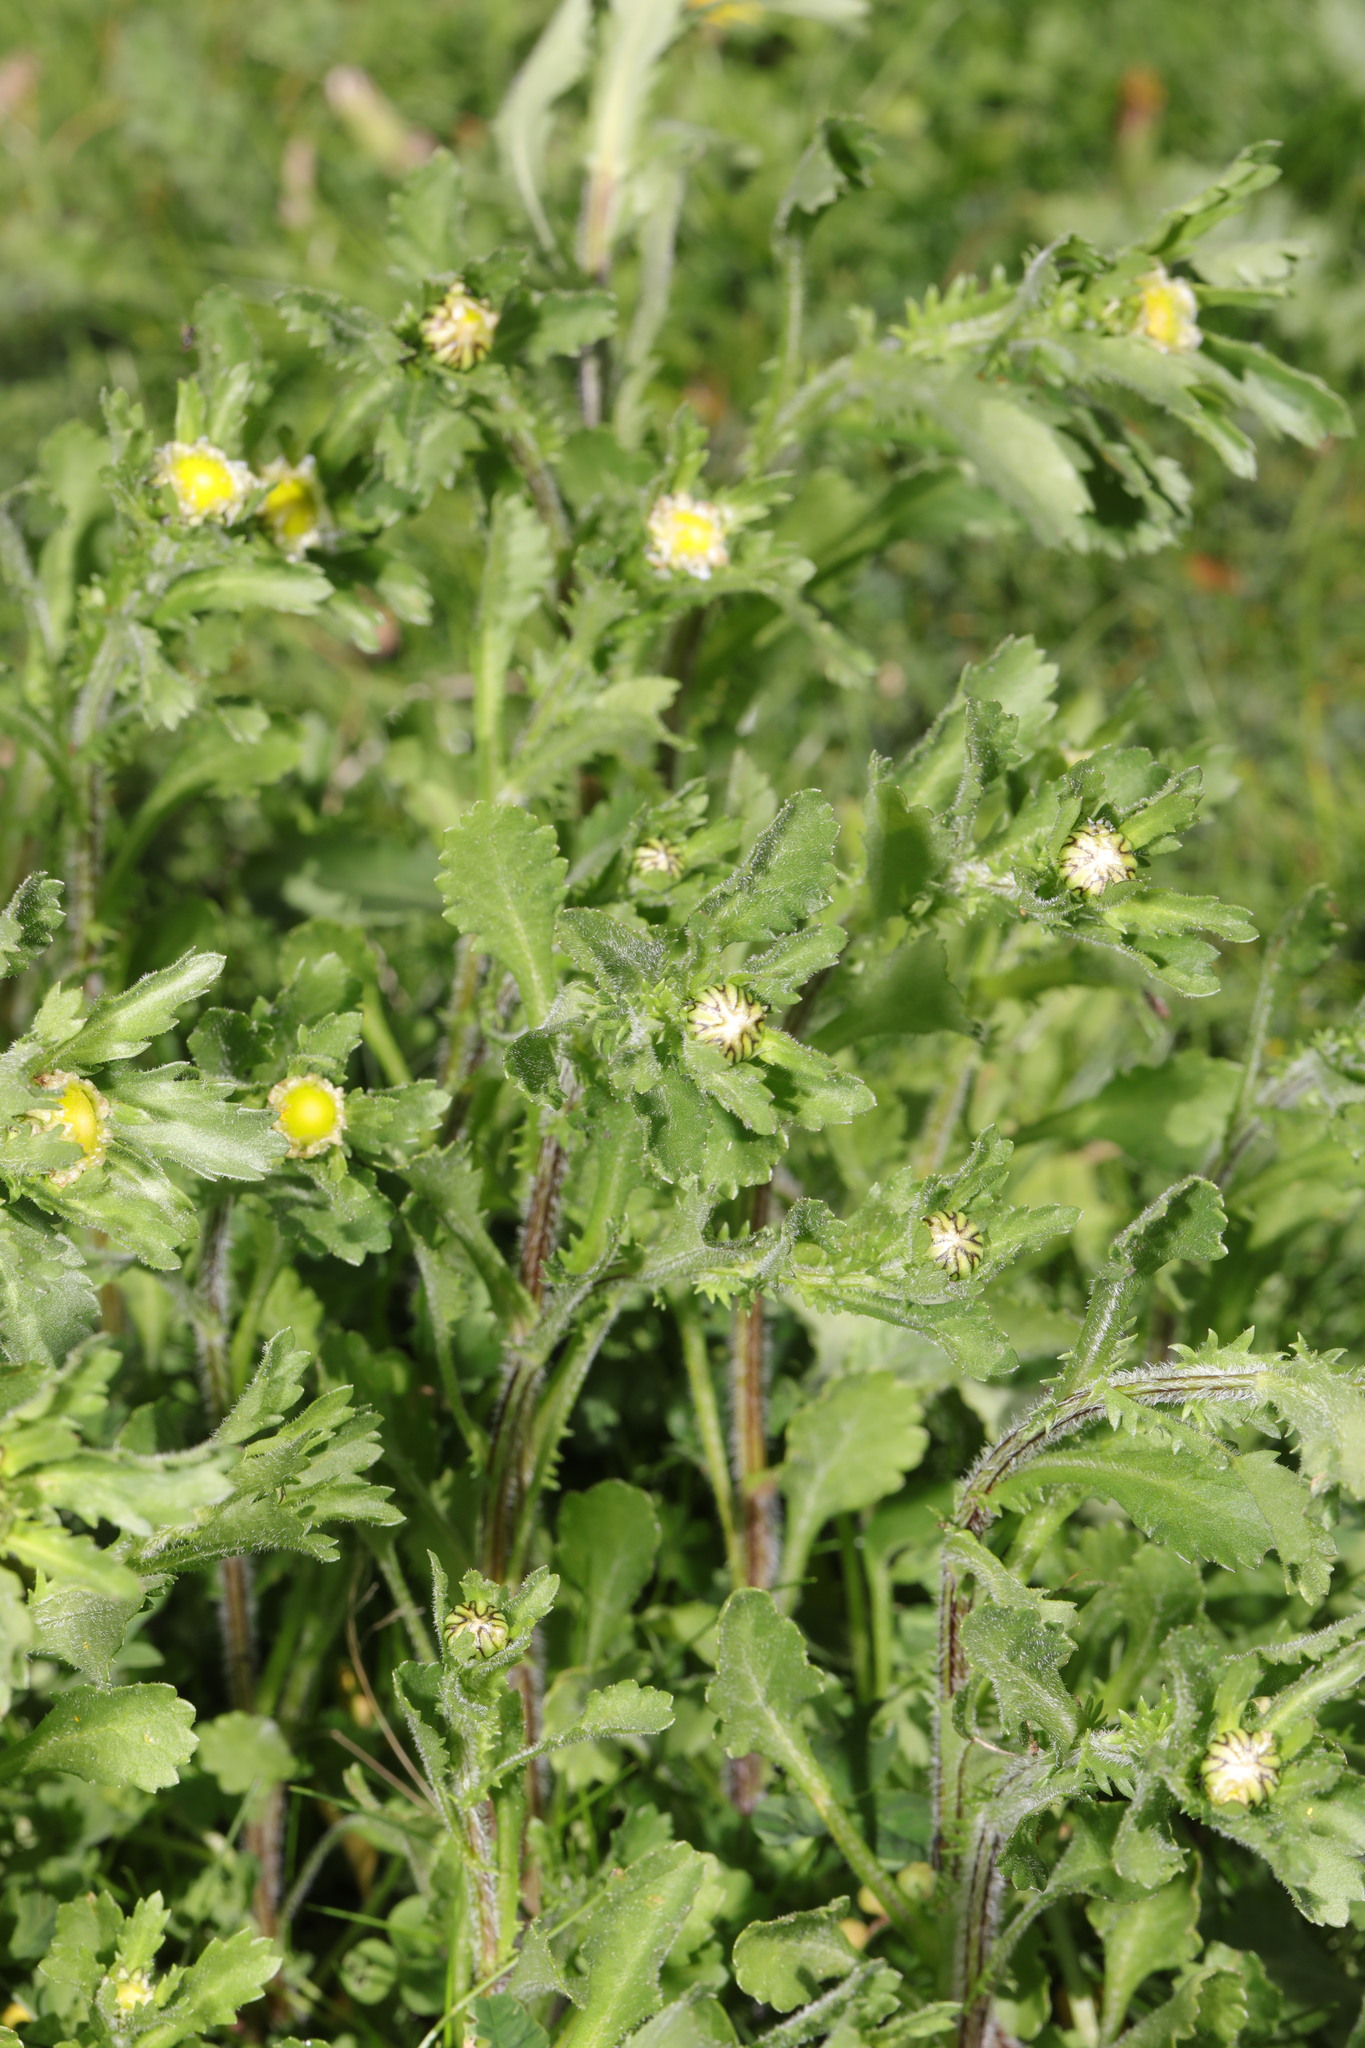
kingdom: Plantae
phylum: Tracheophyta
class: Magnoliopsida
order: Asterales
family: Asteraceae
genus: Leucanthemum
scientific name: Leucanthemum vulgare
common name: Oxeye daisy
